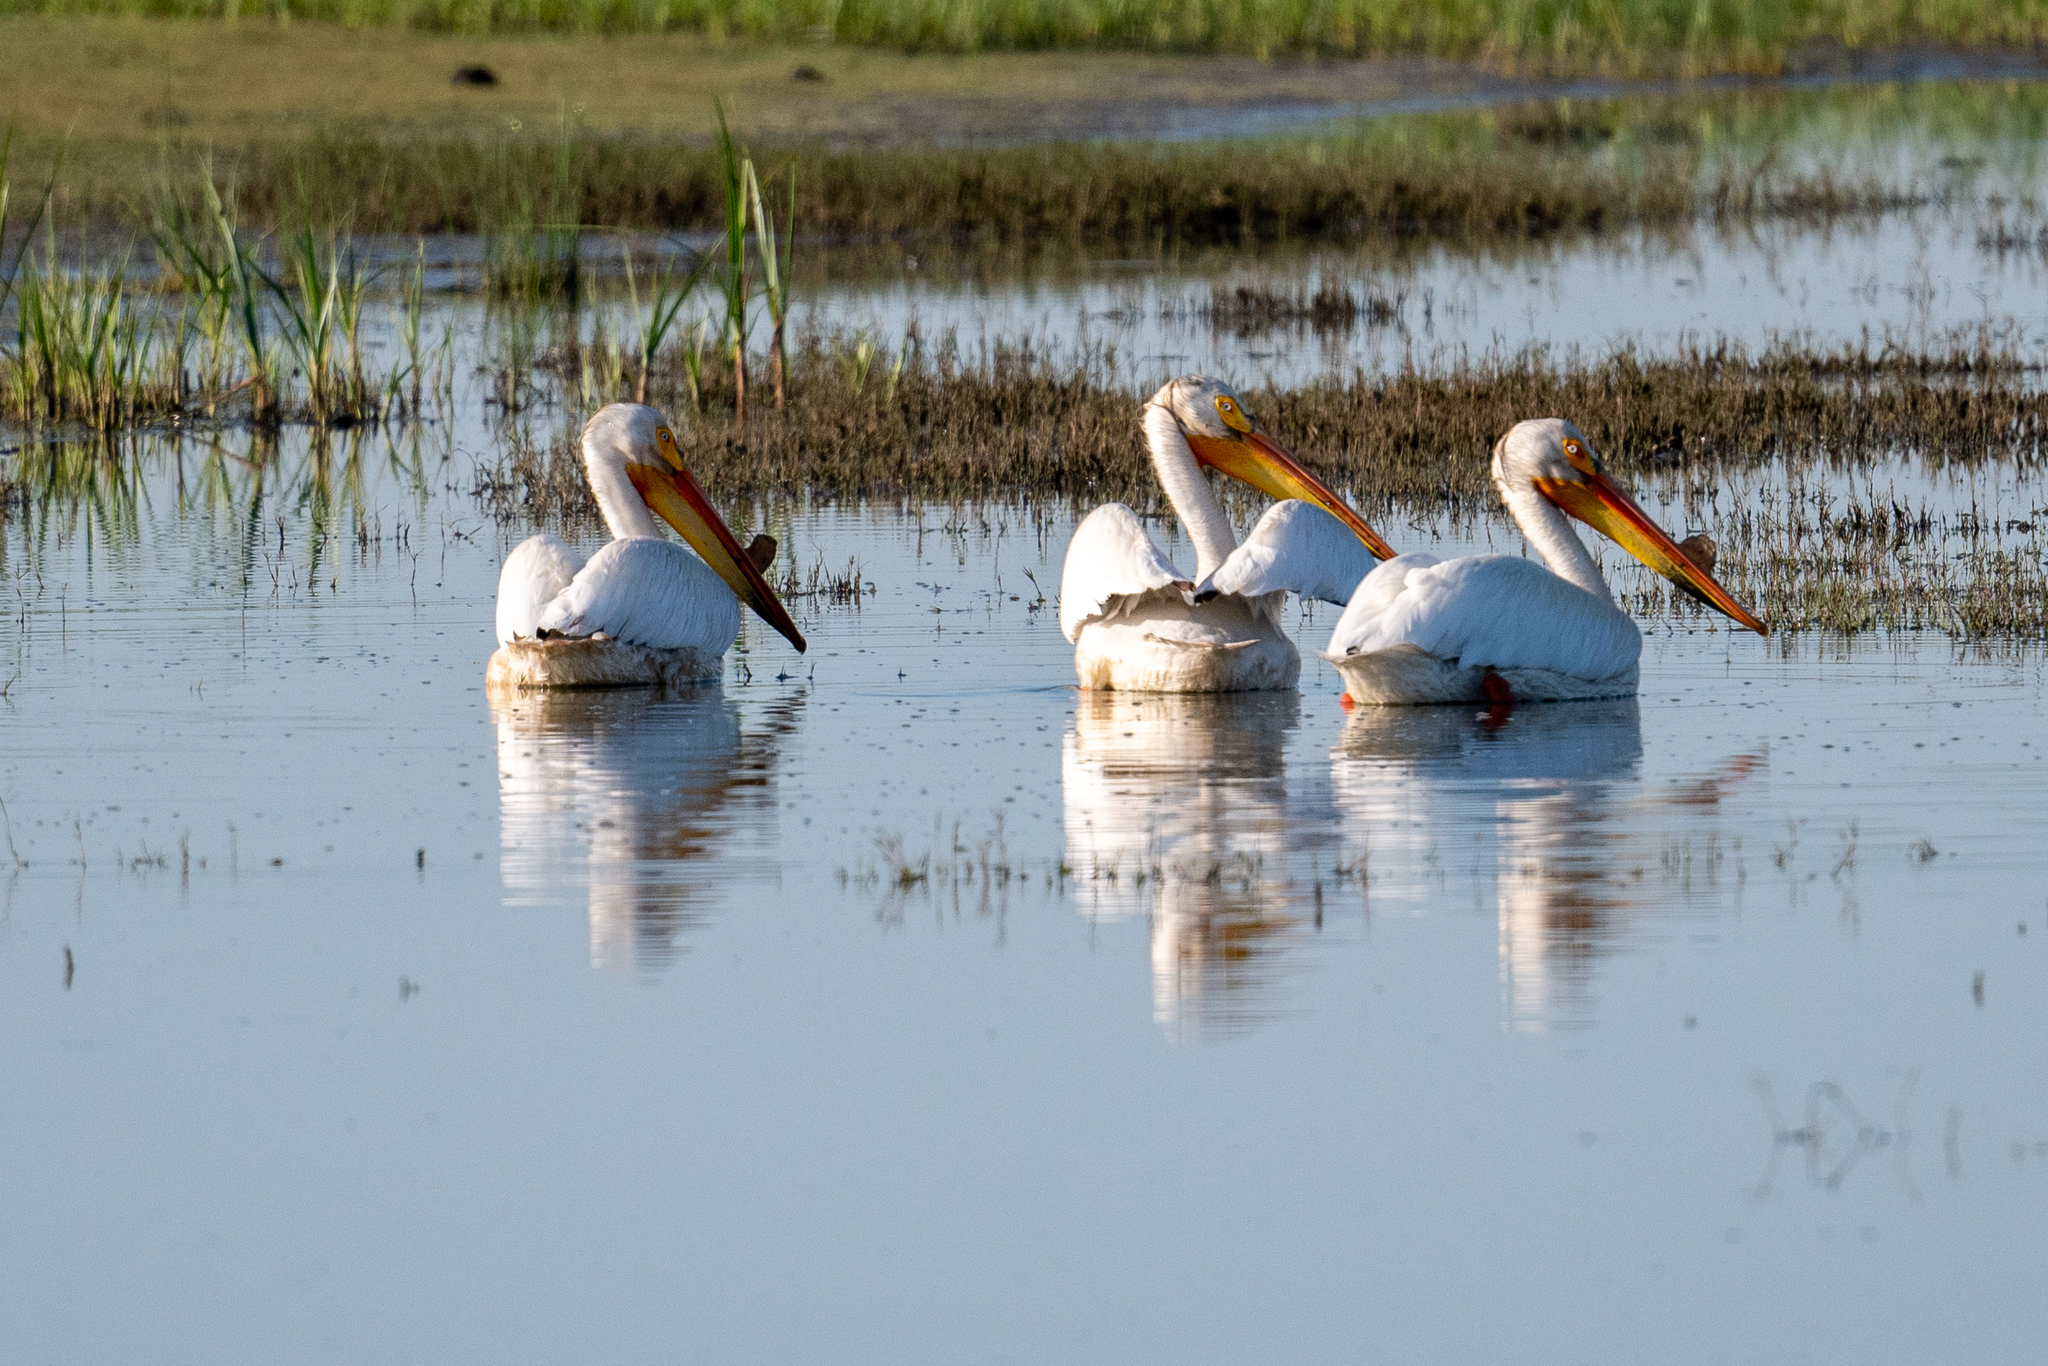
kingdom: Animalia
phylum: Chordata
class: Aves
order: Pelecaniformes
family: Pelecanidae
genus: Pelecanus
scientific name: Pelecanus erythrorhynchos
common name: American white pelican
